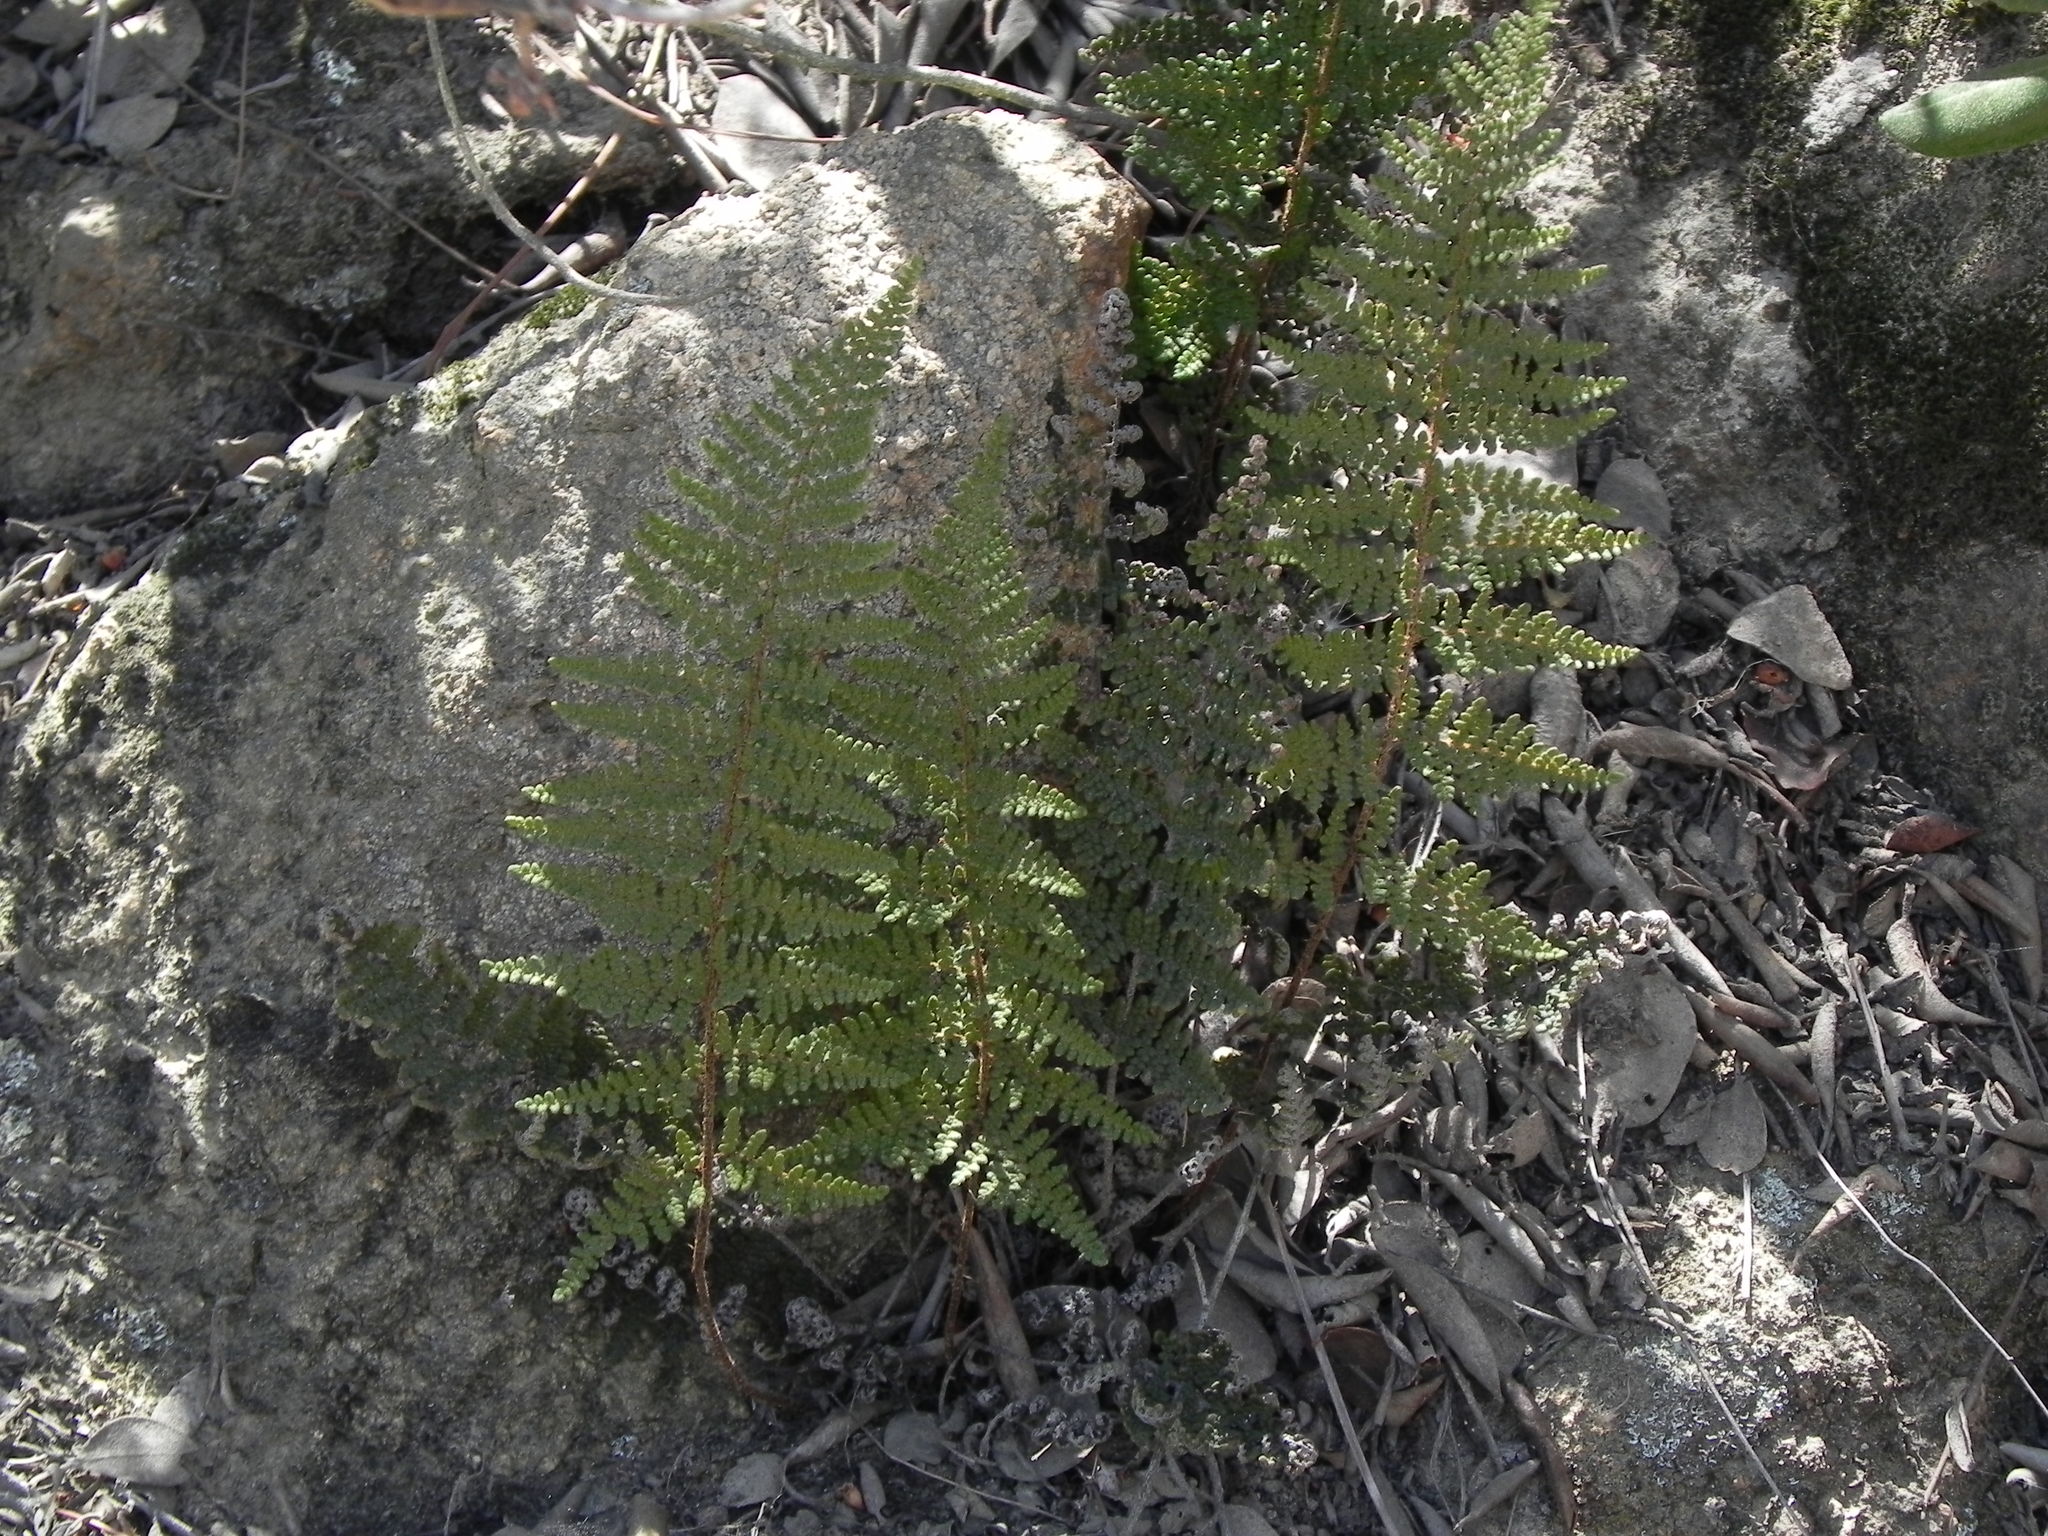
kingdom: Plantae
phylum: Tracheophyta
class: Polypodiopsida
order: Polypodiales
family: Pteridaceae
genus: Myriopteris
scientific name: Myriopteris clevelandii
